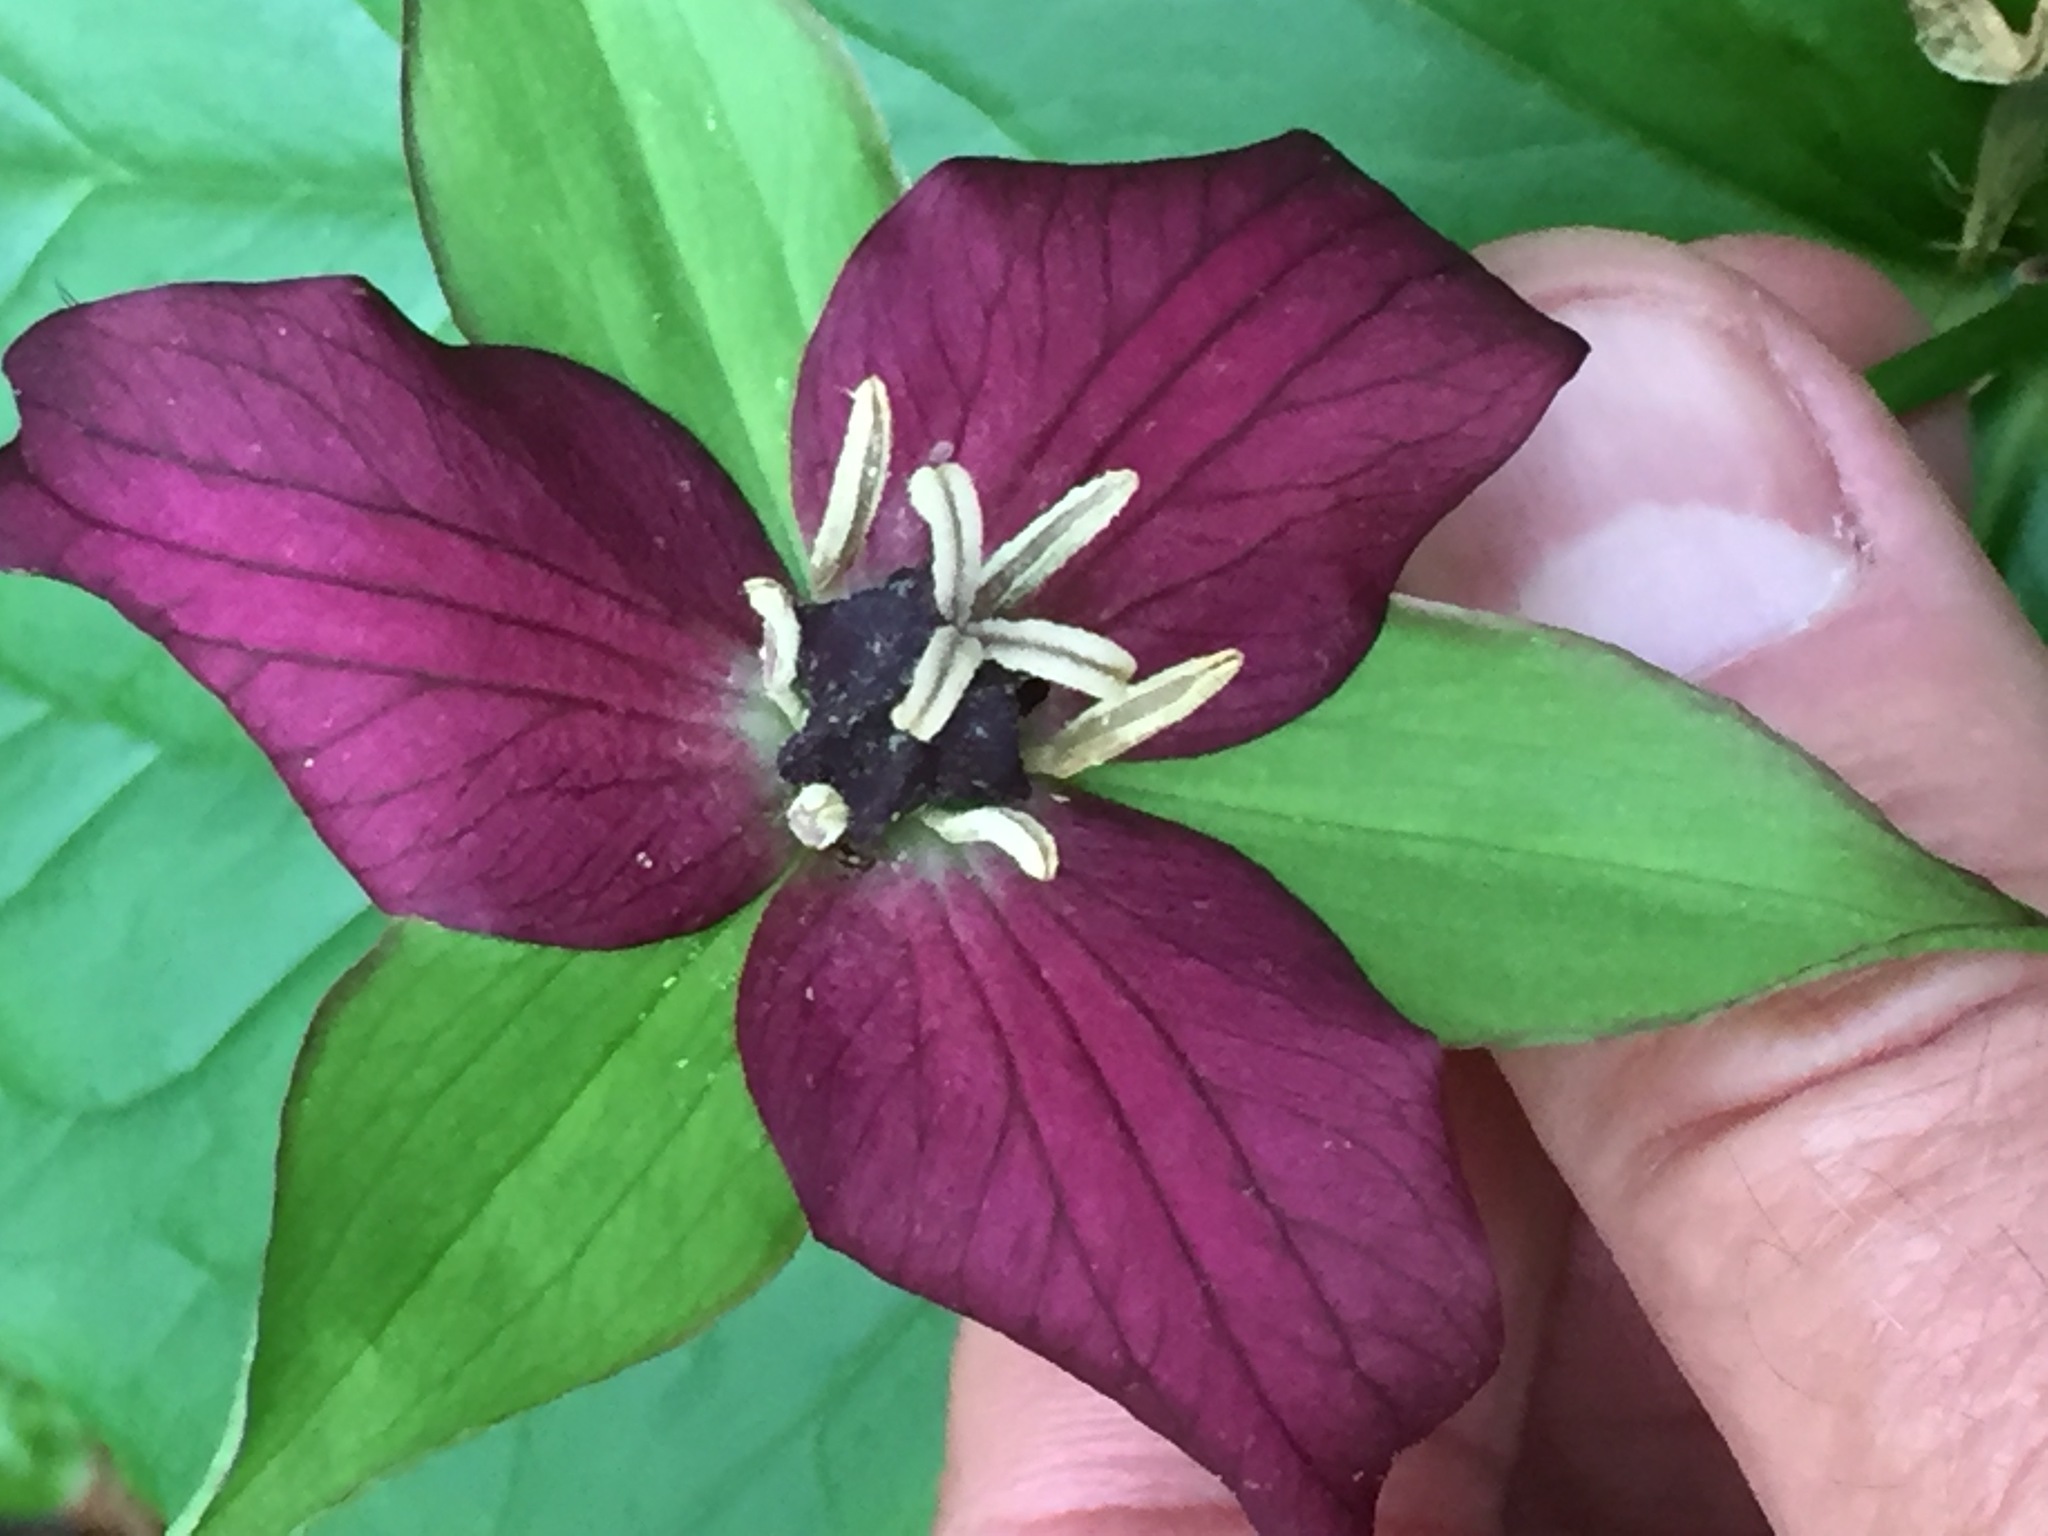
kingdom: Plantae
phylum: Tracheophyta
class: Liliopsida
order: Liliales
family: Melanthiaceae
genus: Trillium
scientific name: Trillium erectum
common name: Purple trillium
